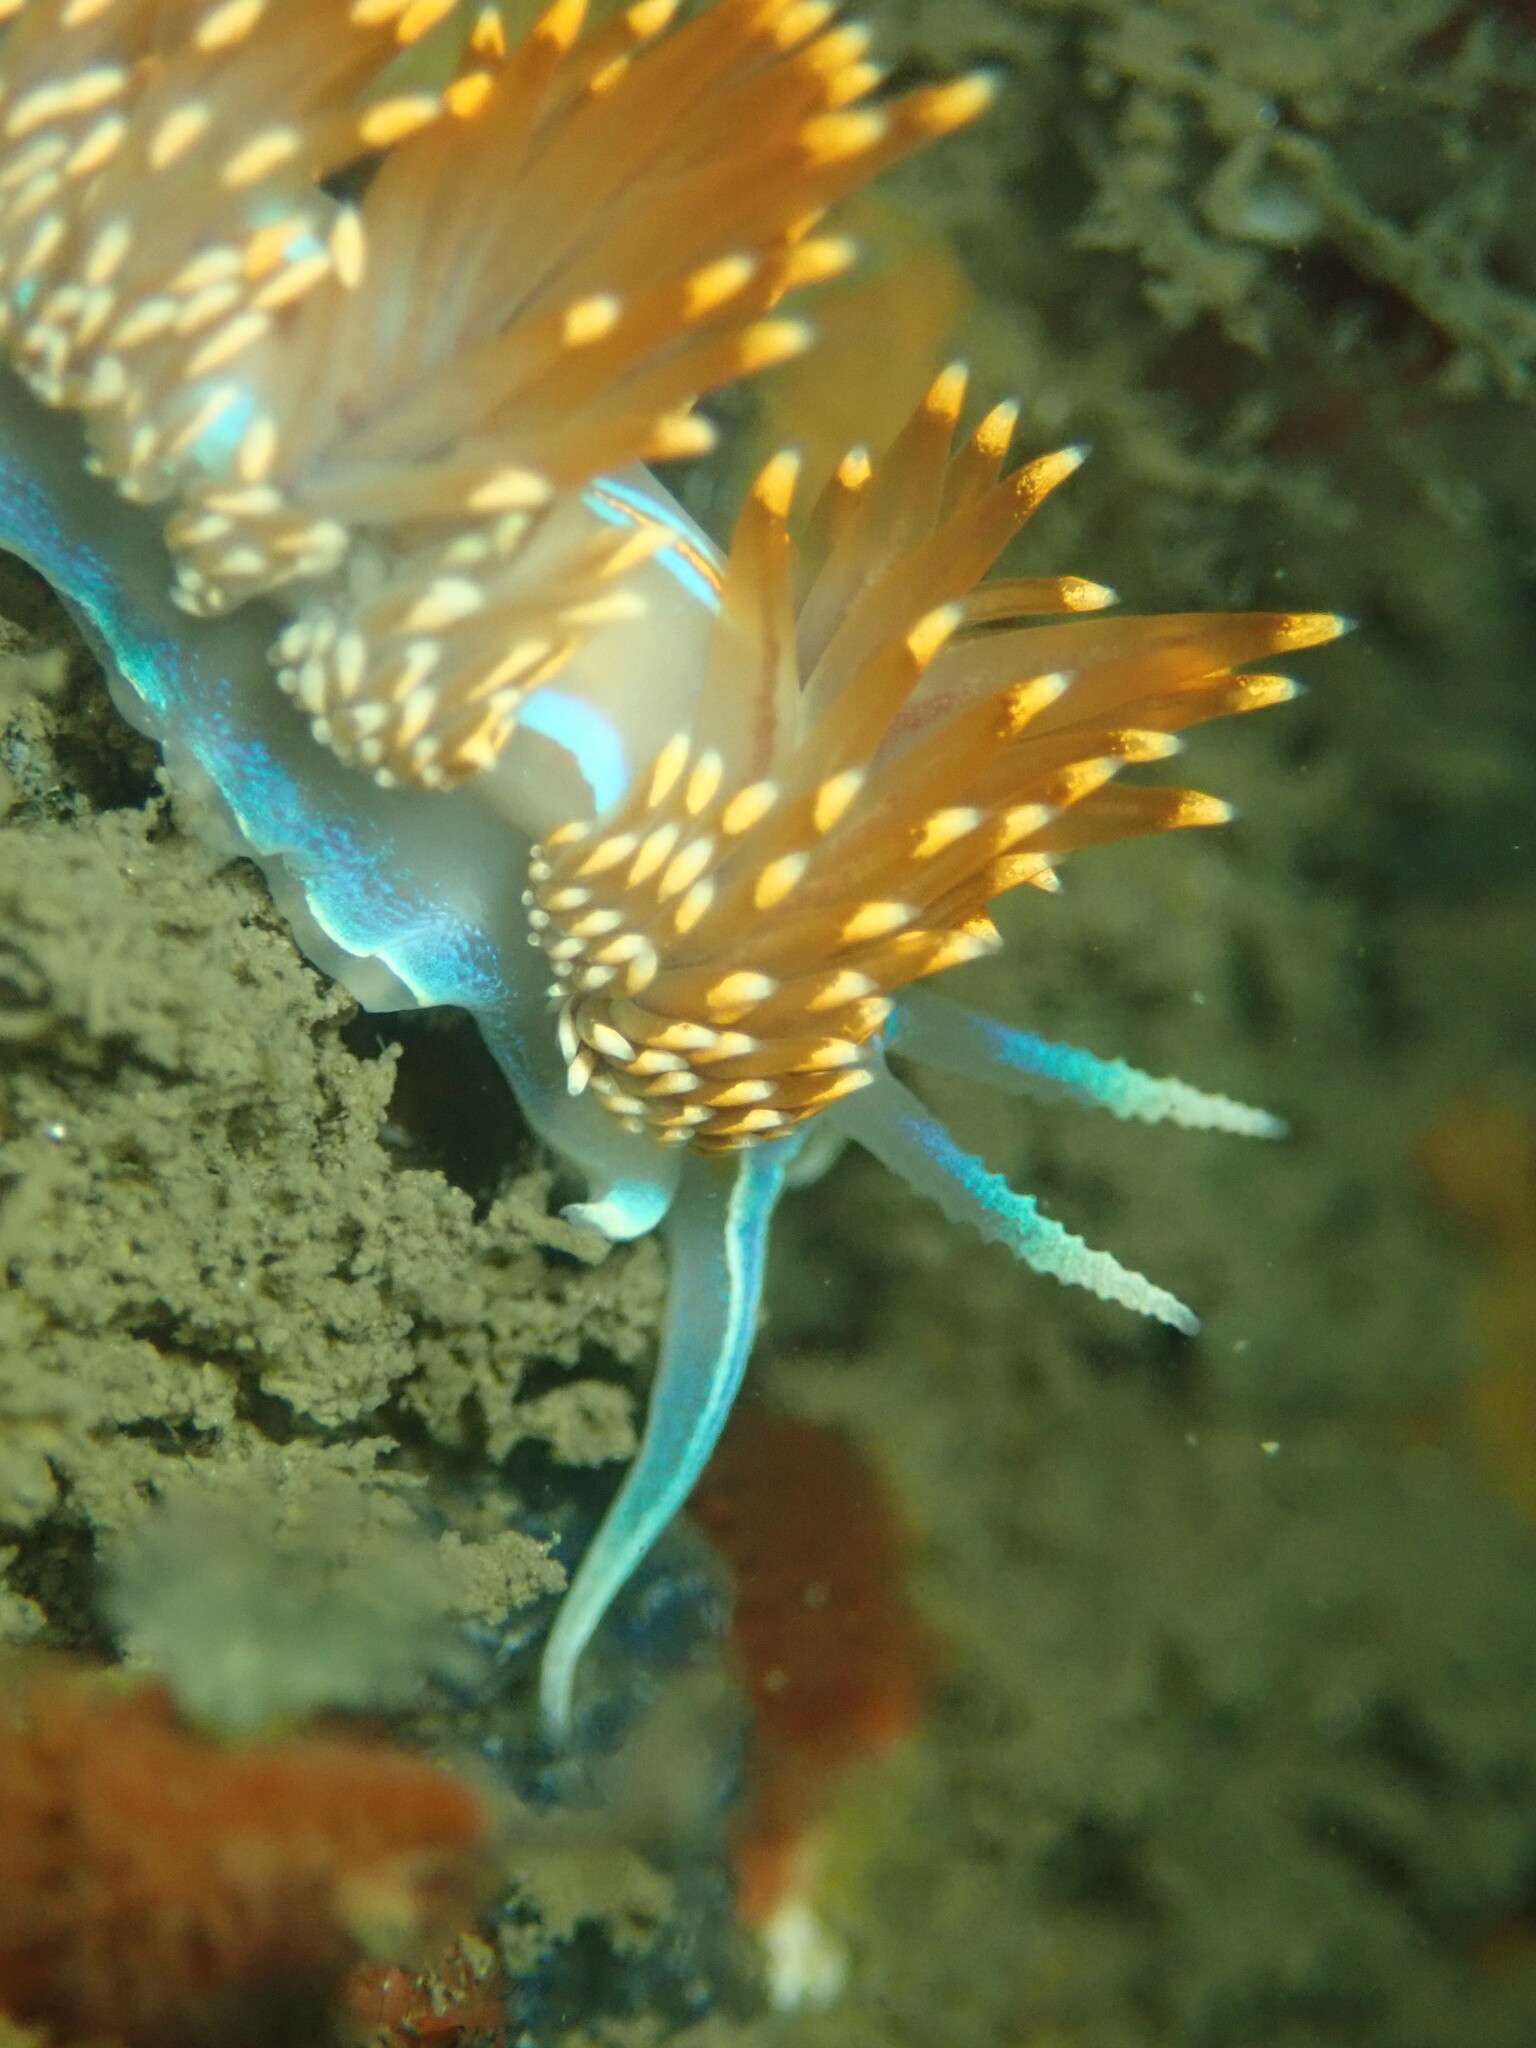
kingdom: Animalia
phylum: Mollusca
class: Gastropoda
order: Nudibranchia
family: Myrrhinidae
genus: Hermissenda
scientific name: Hermissenda opalescens
